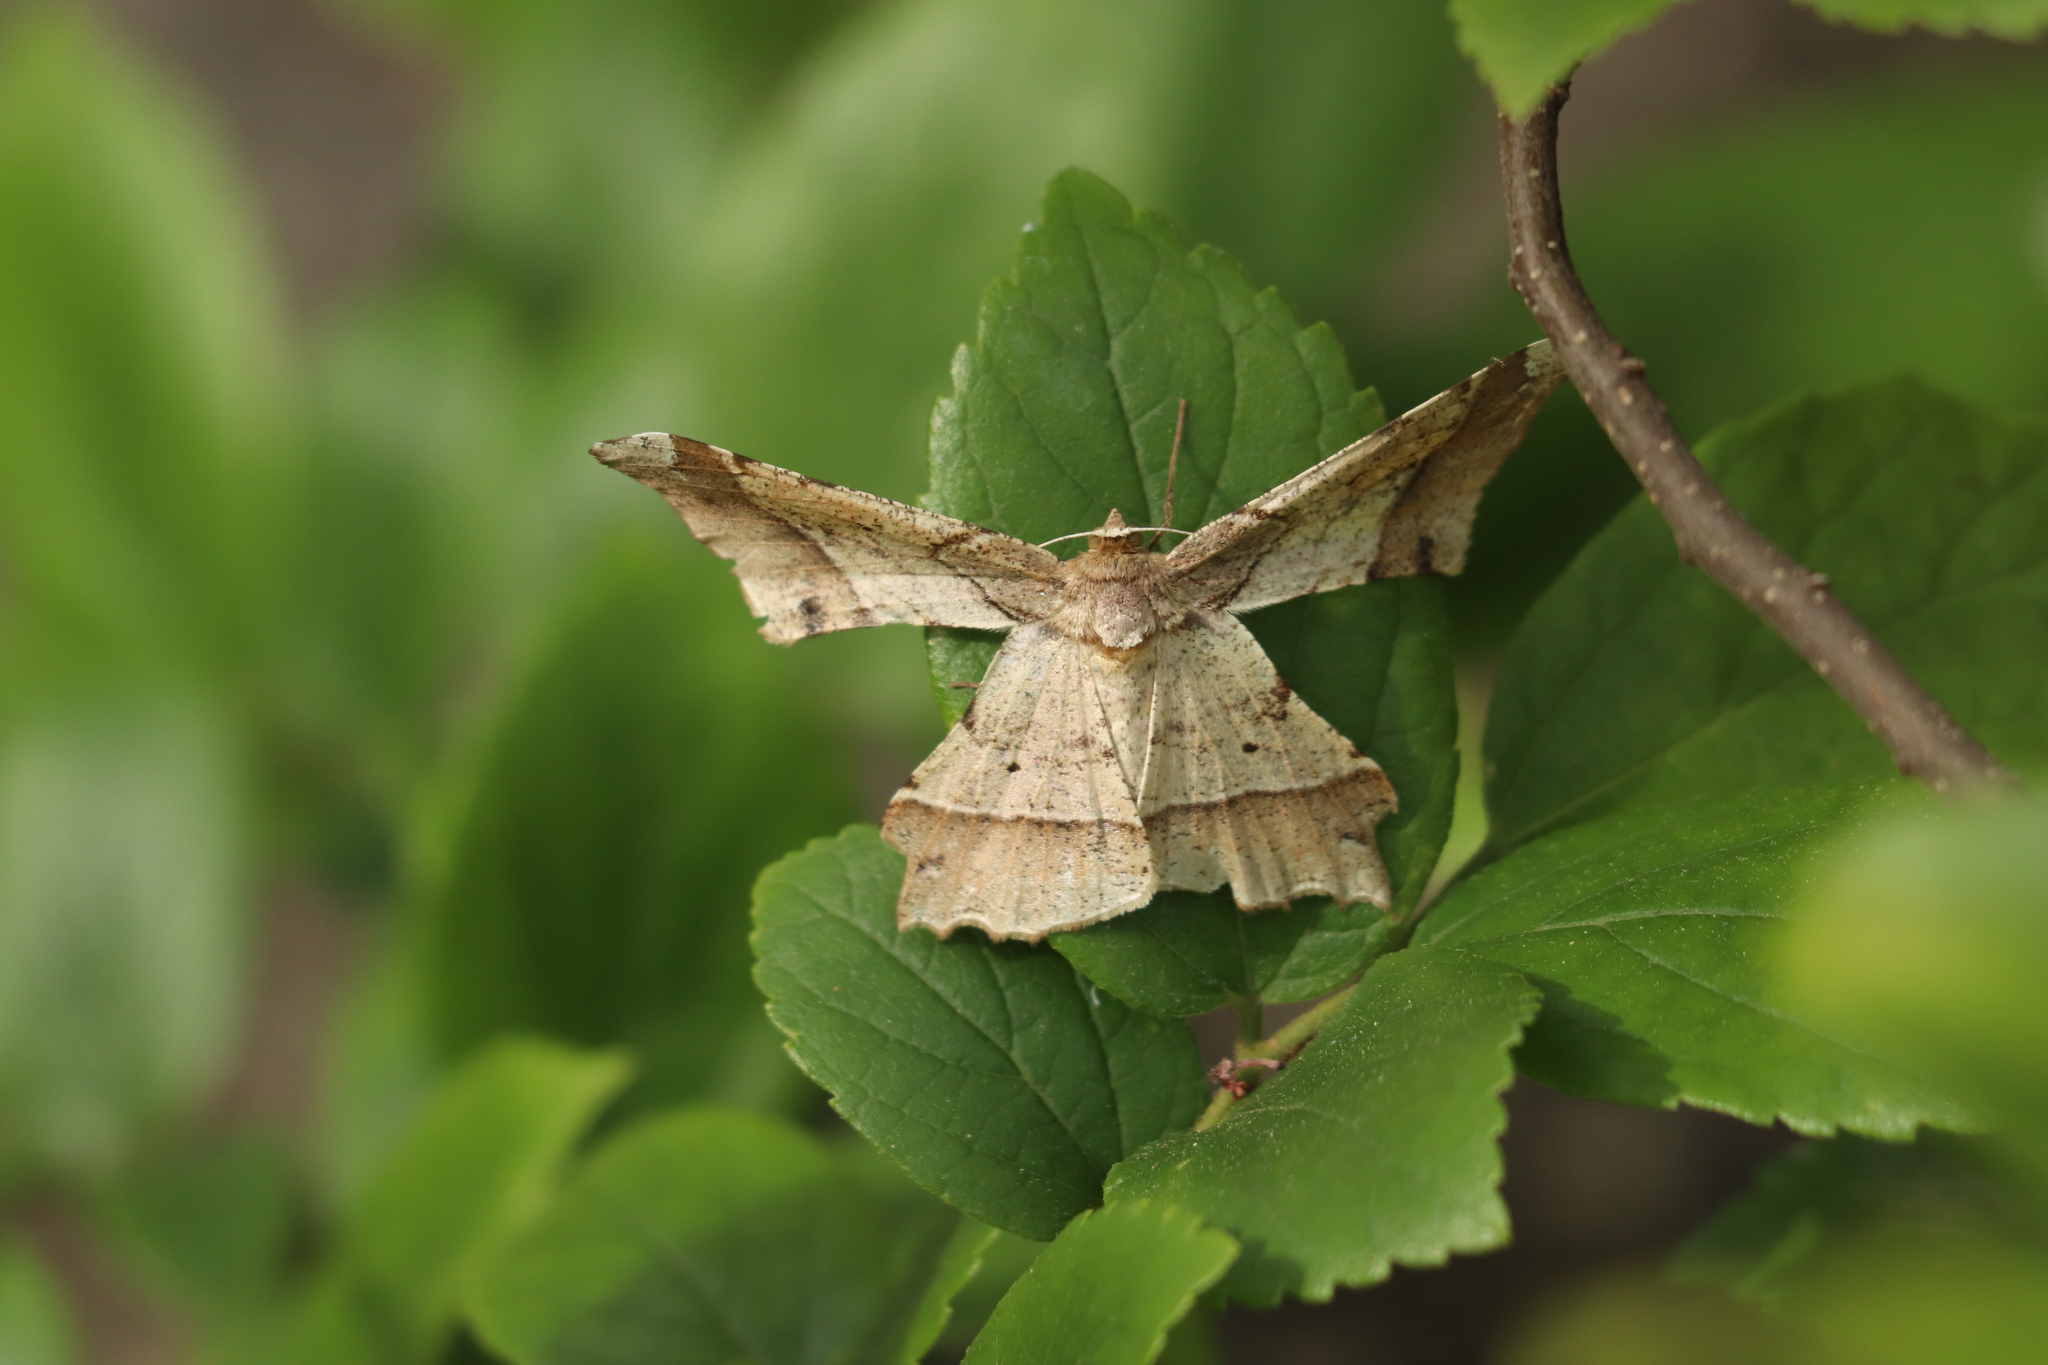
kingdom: Animalia
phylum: Arthropoda
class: Insecta
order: Lepidoptera
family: Geometridae
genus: Krananda
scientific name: Krananda latimarginaria
